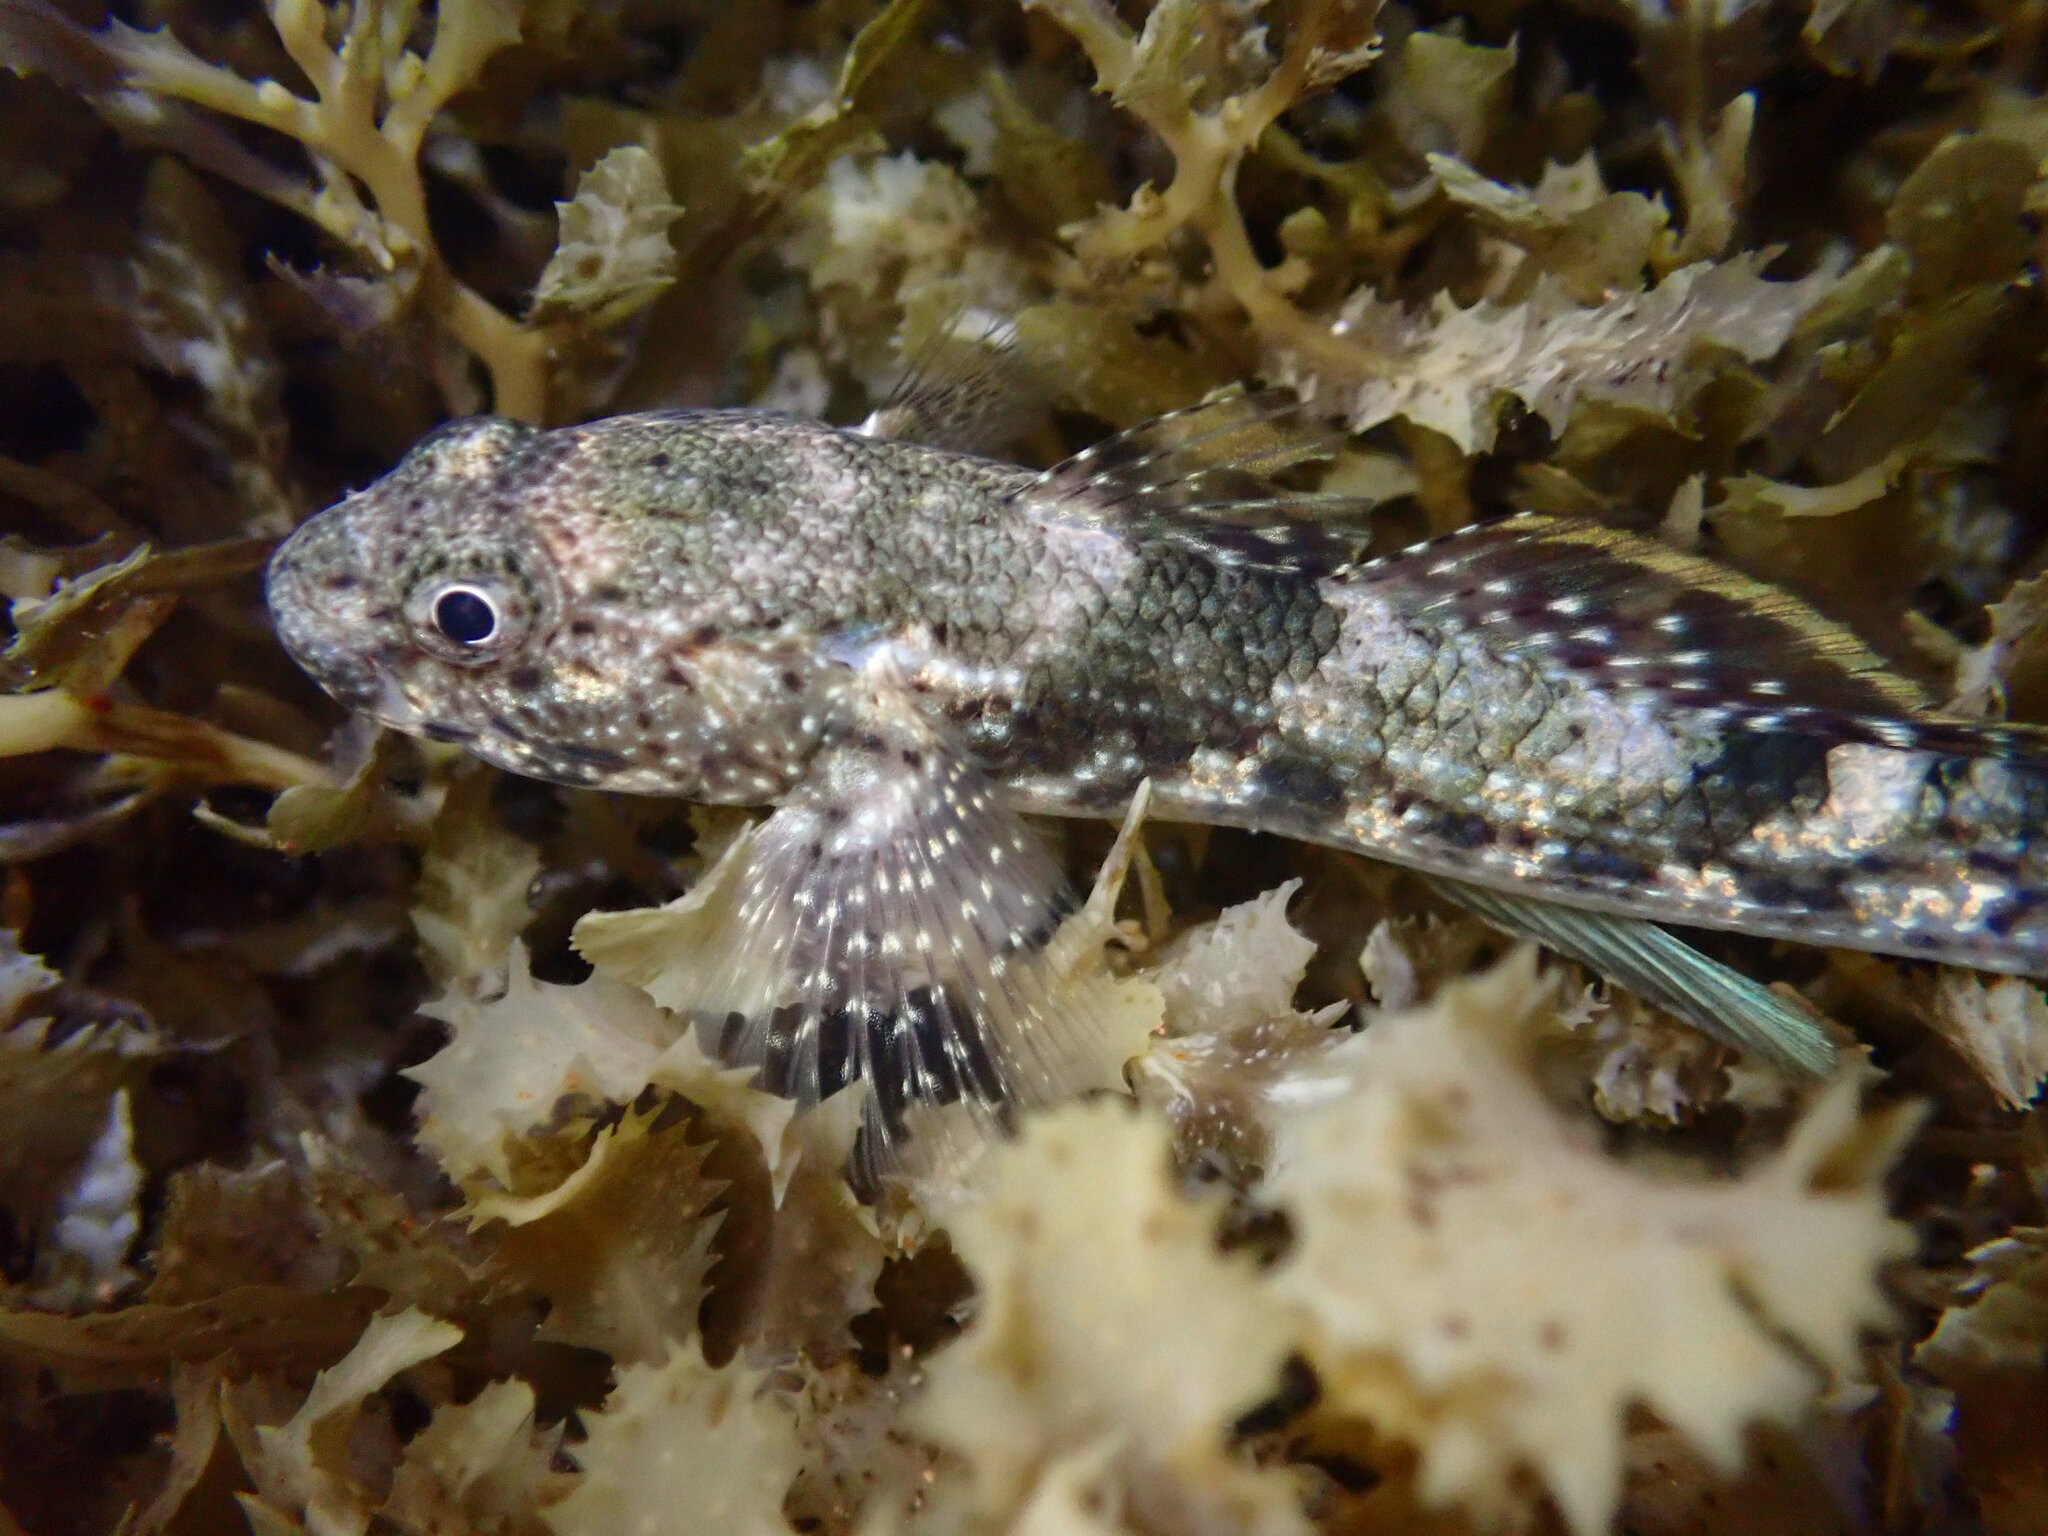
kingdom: Animalia
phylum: Chordata
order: Perciformes
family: Gobiidae
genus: Bathygobius
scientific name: Bathygobius coalitus
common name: Whitespotted goby
